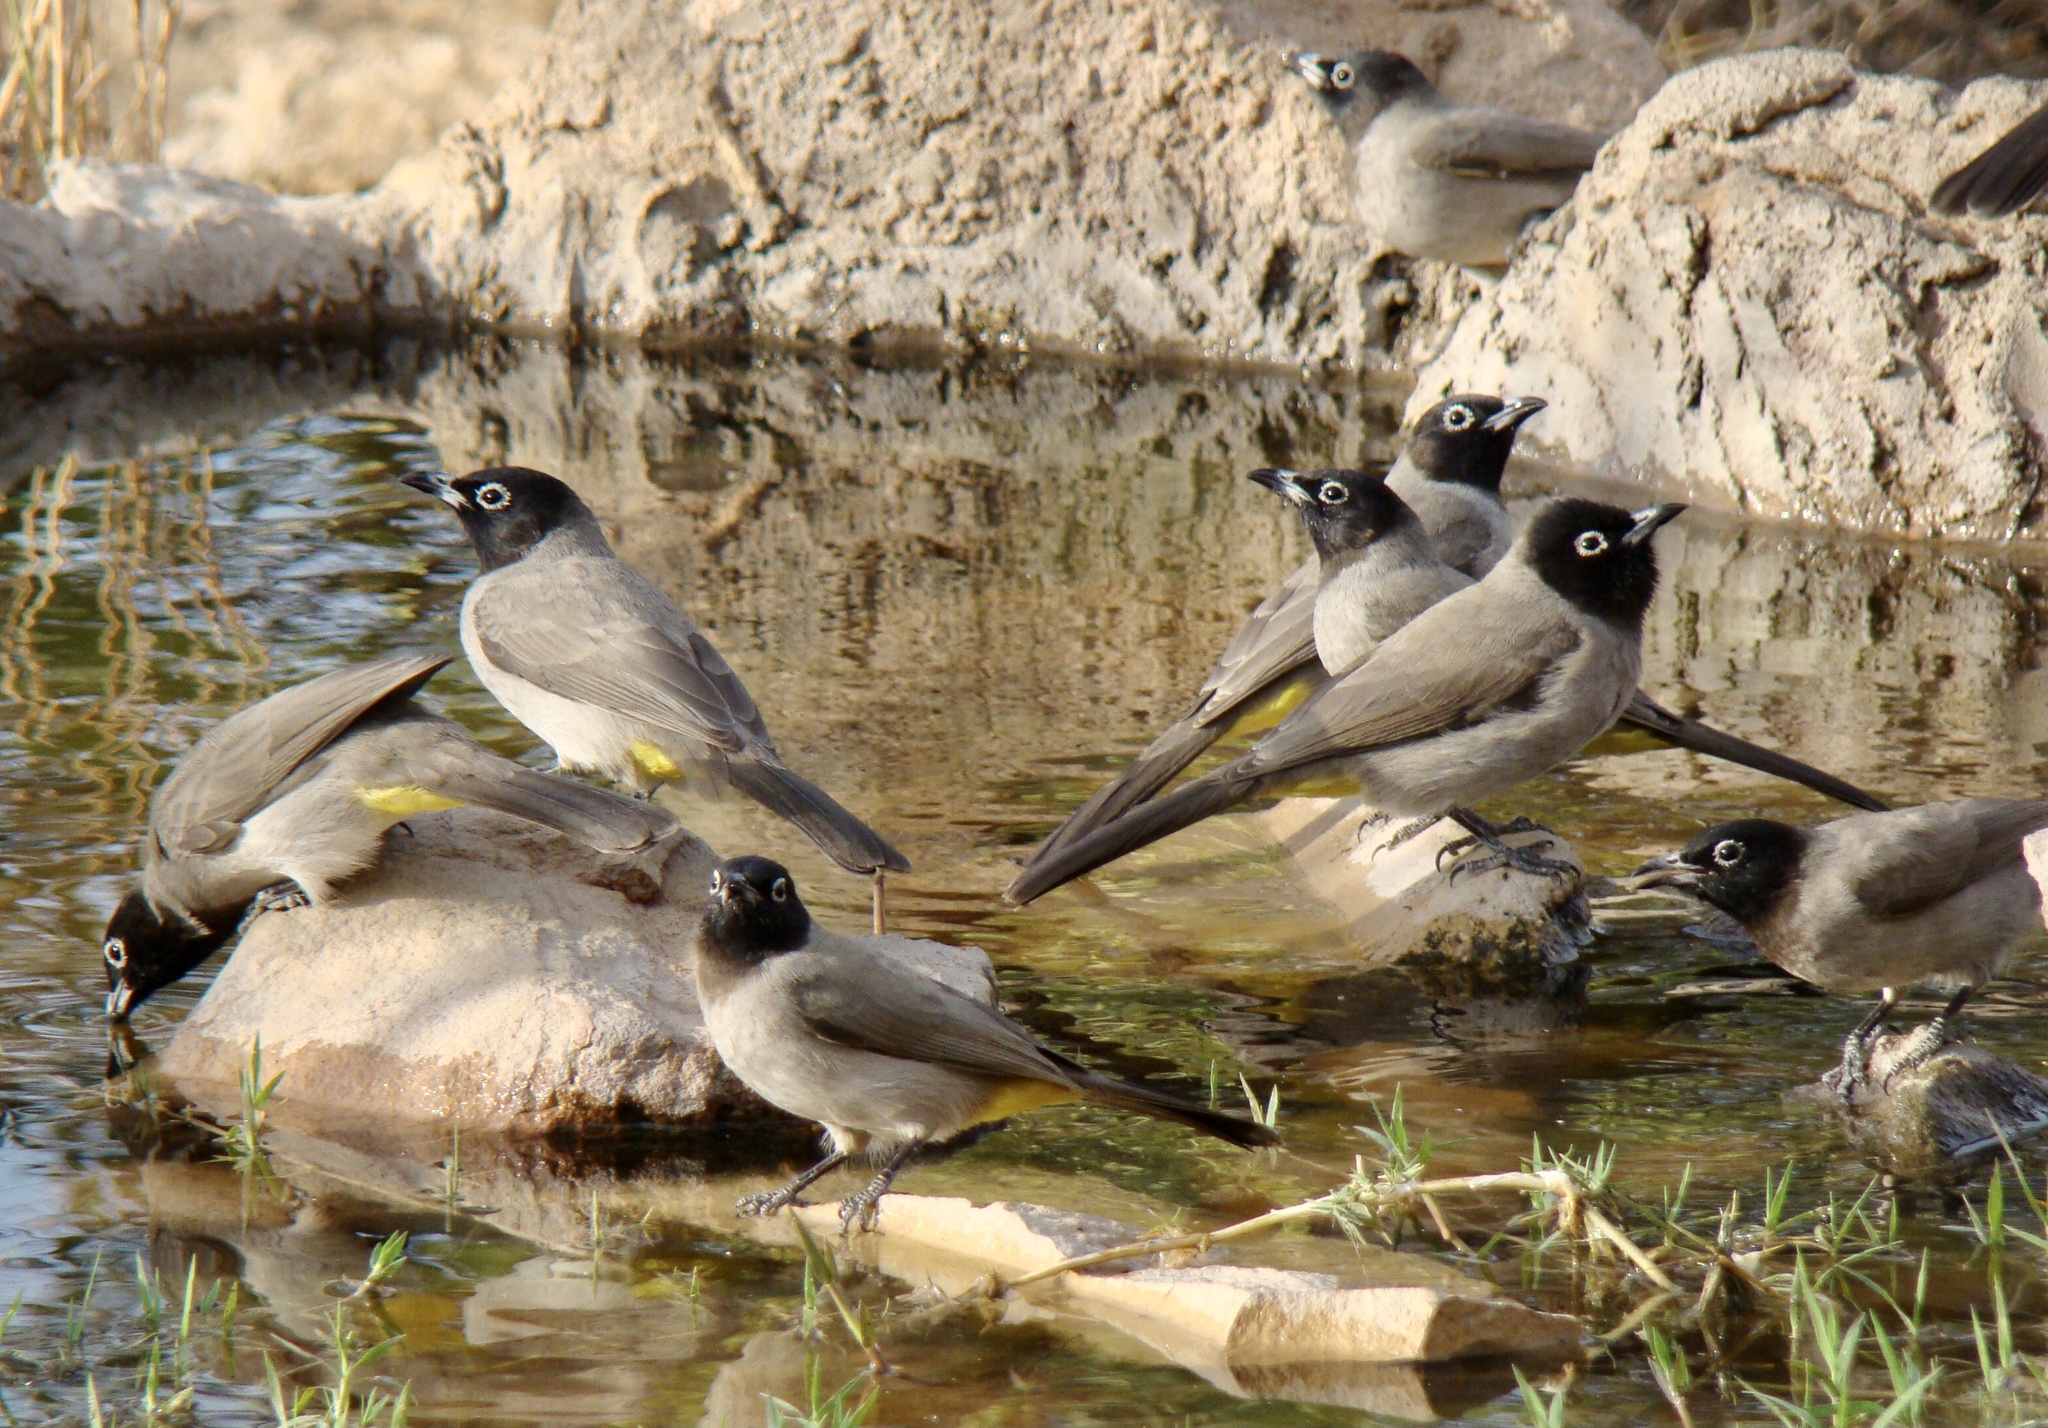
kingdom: Animalia
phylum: Chordata
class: Aves
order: Passeriformes
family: Pycnonotidae
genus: Pycnonotus
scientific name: Pycnonotus xanthopygos
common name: White-spectacled bulbul
